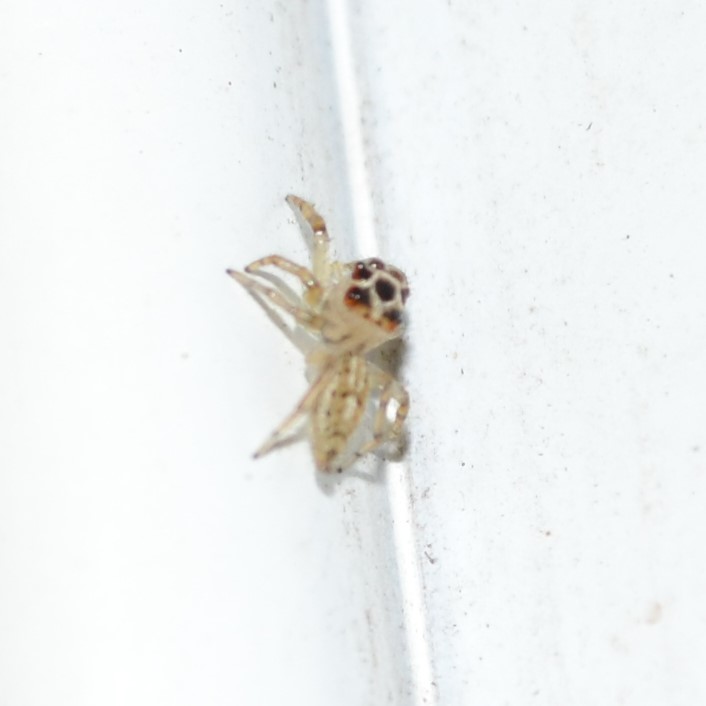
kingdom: Animalia
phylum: Arthropoda
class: Arachnida
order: Araneae
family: Salticidae
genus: Colonus
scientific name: Colonus sylvanus
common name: Jumping spiders
